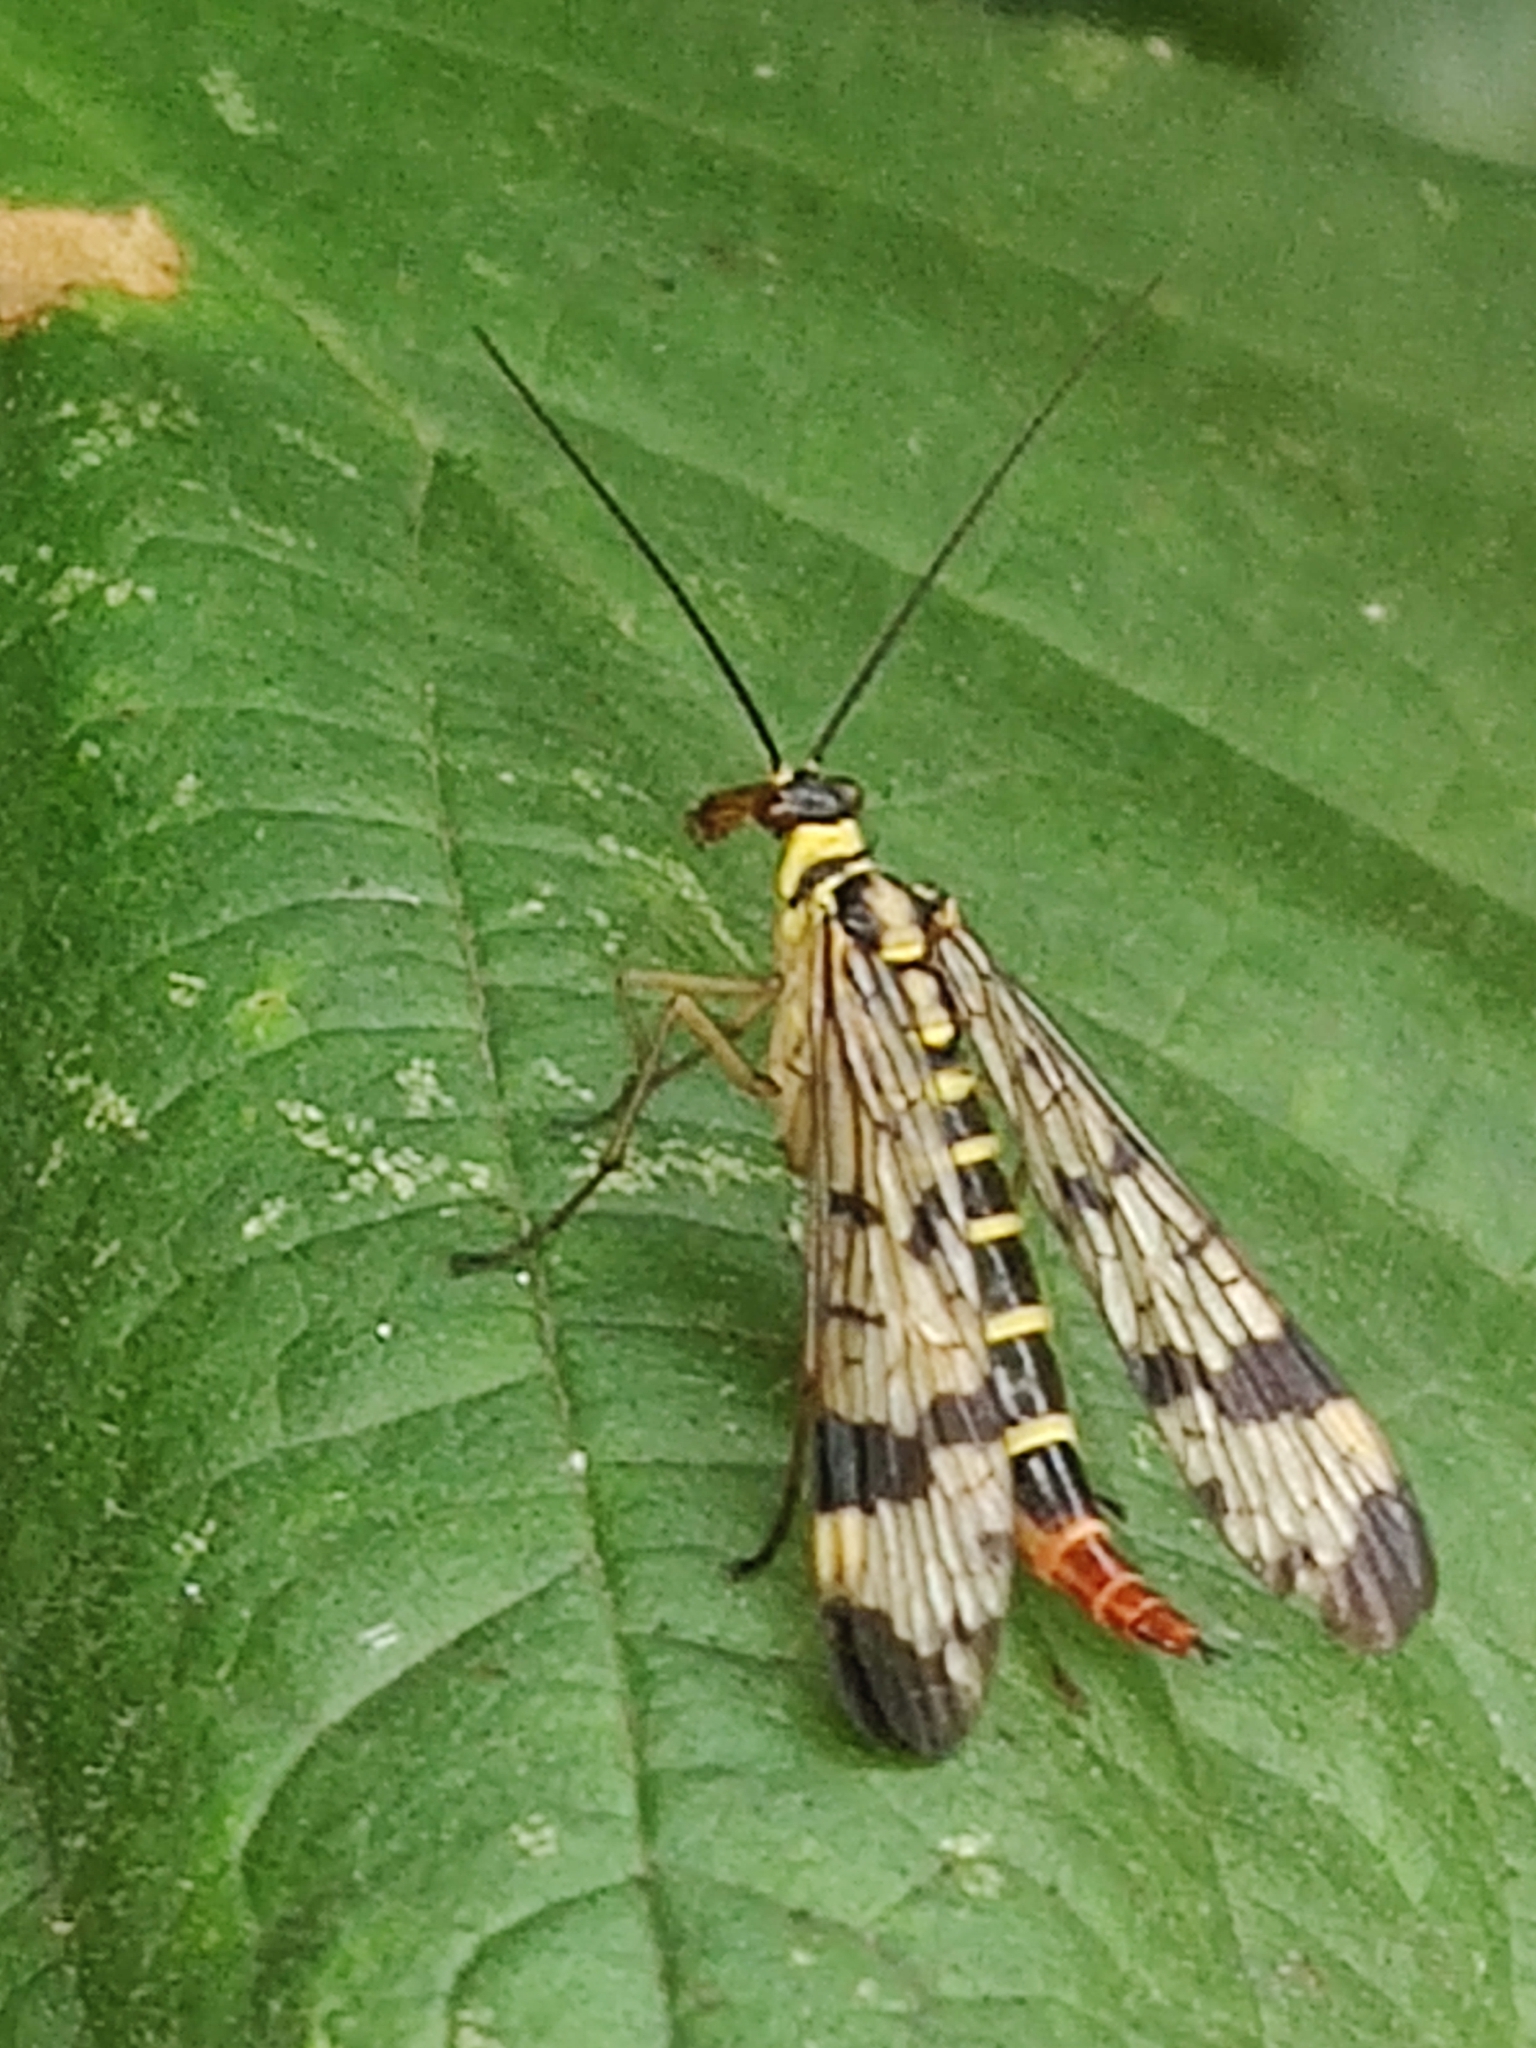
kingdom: Animalia
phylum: Arthropoda
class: Insecta
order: Mecoptera
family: Panorpidae
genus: Panorpa
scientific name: Panorpa communis
